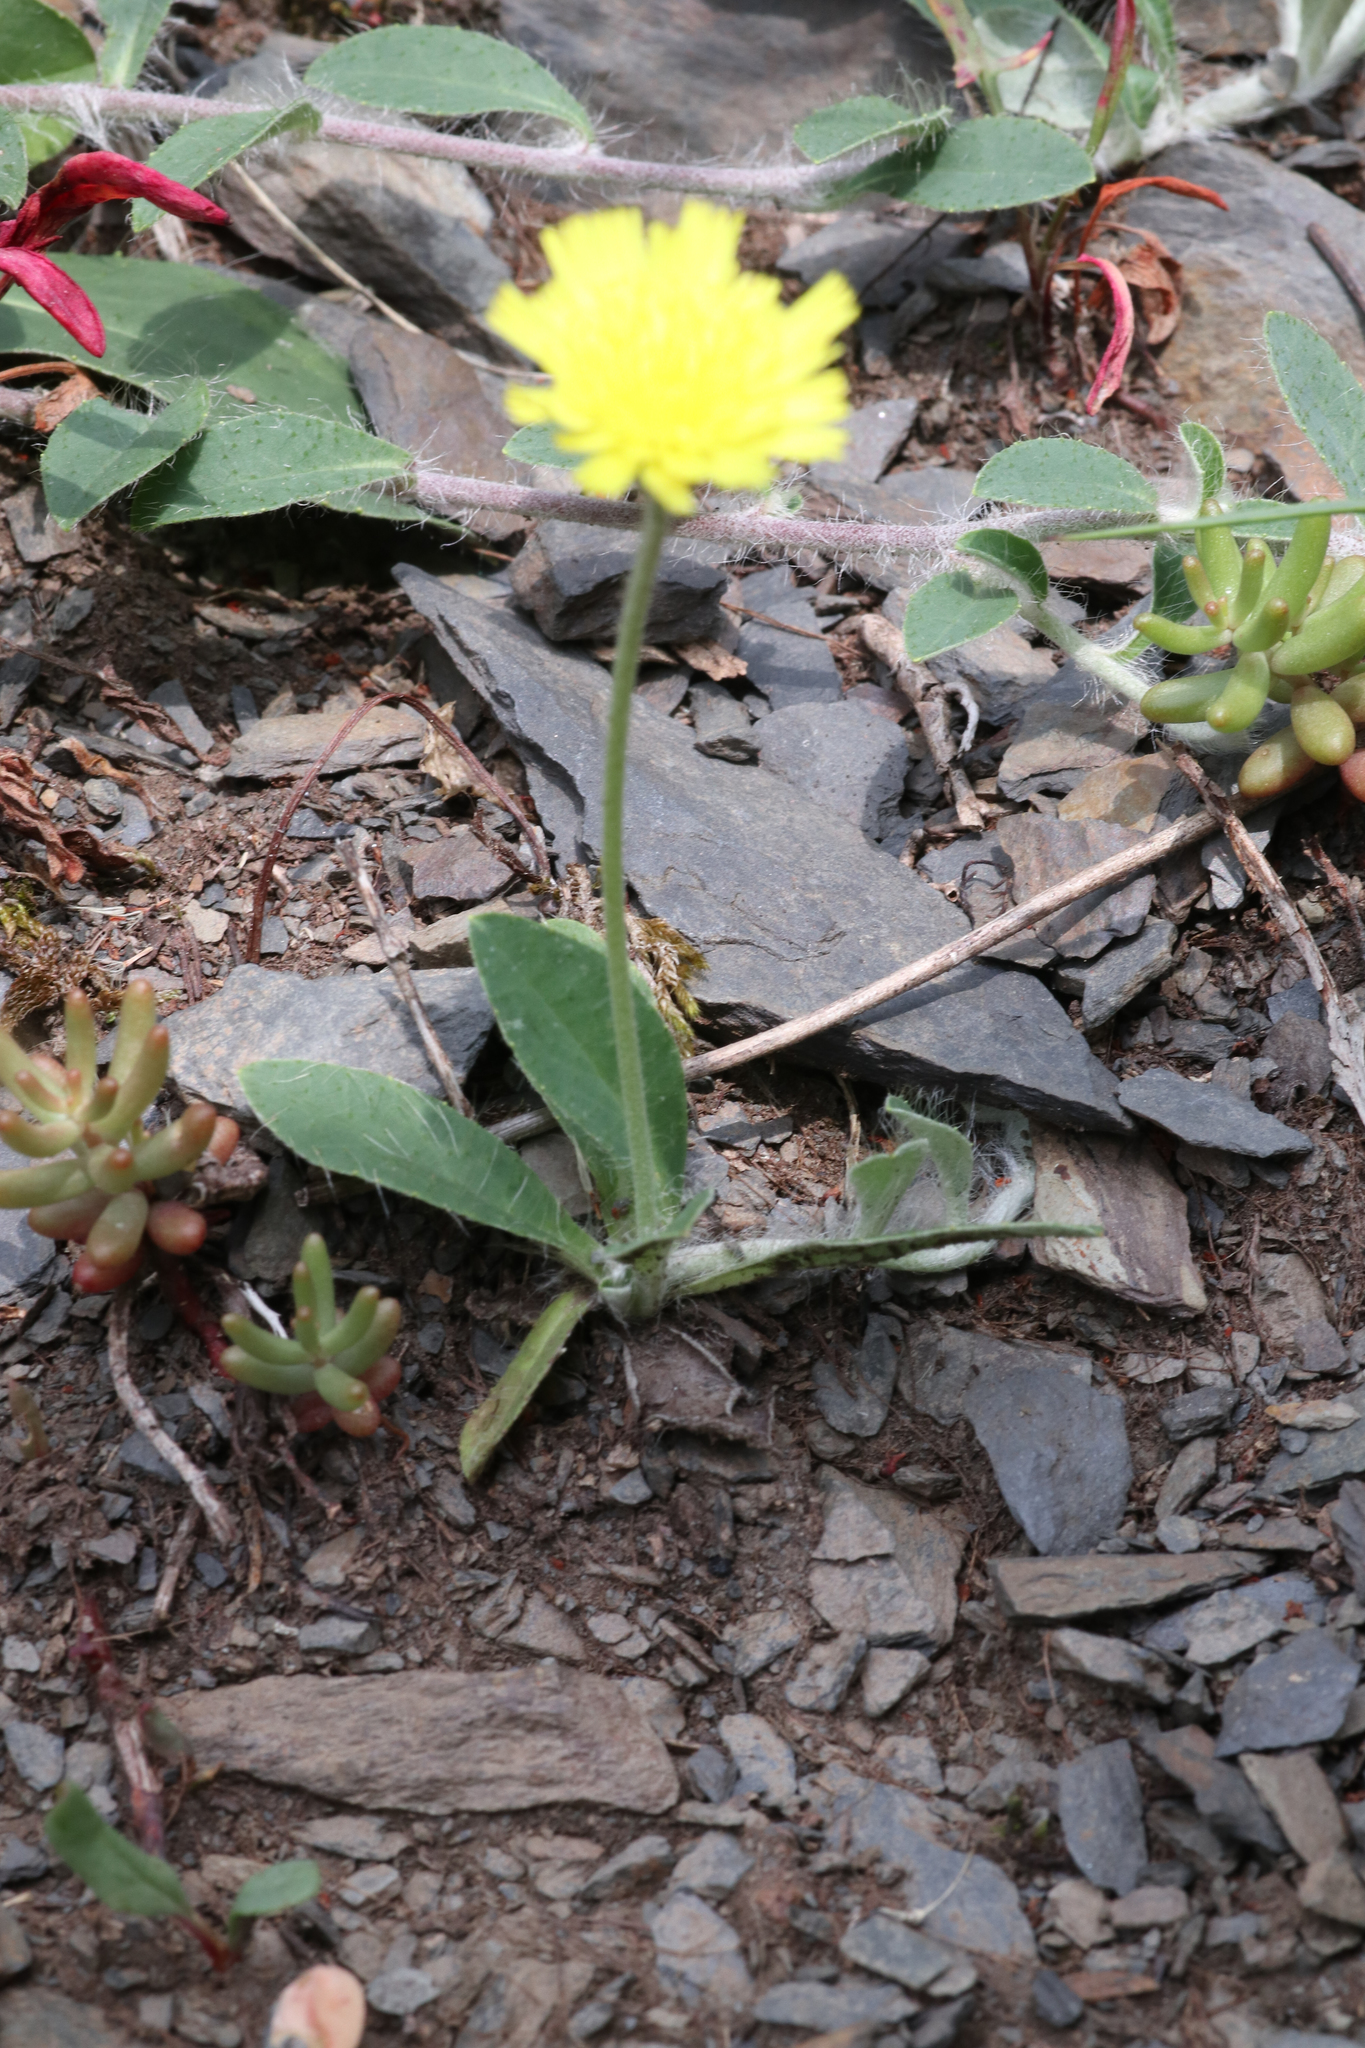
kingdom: Plantae
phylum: Tracheophyta
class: Magnoliopsida
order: Asterales
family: Asteraceae
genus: Pilosella
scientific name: Pilosella officinarum
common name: Mouse-ear hawkweed
